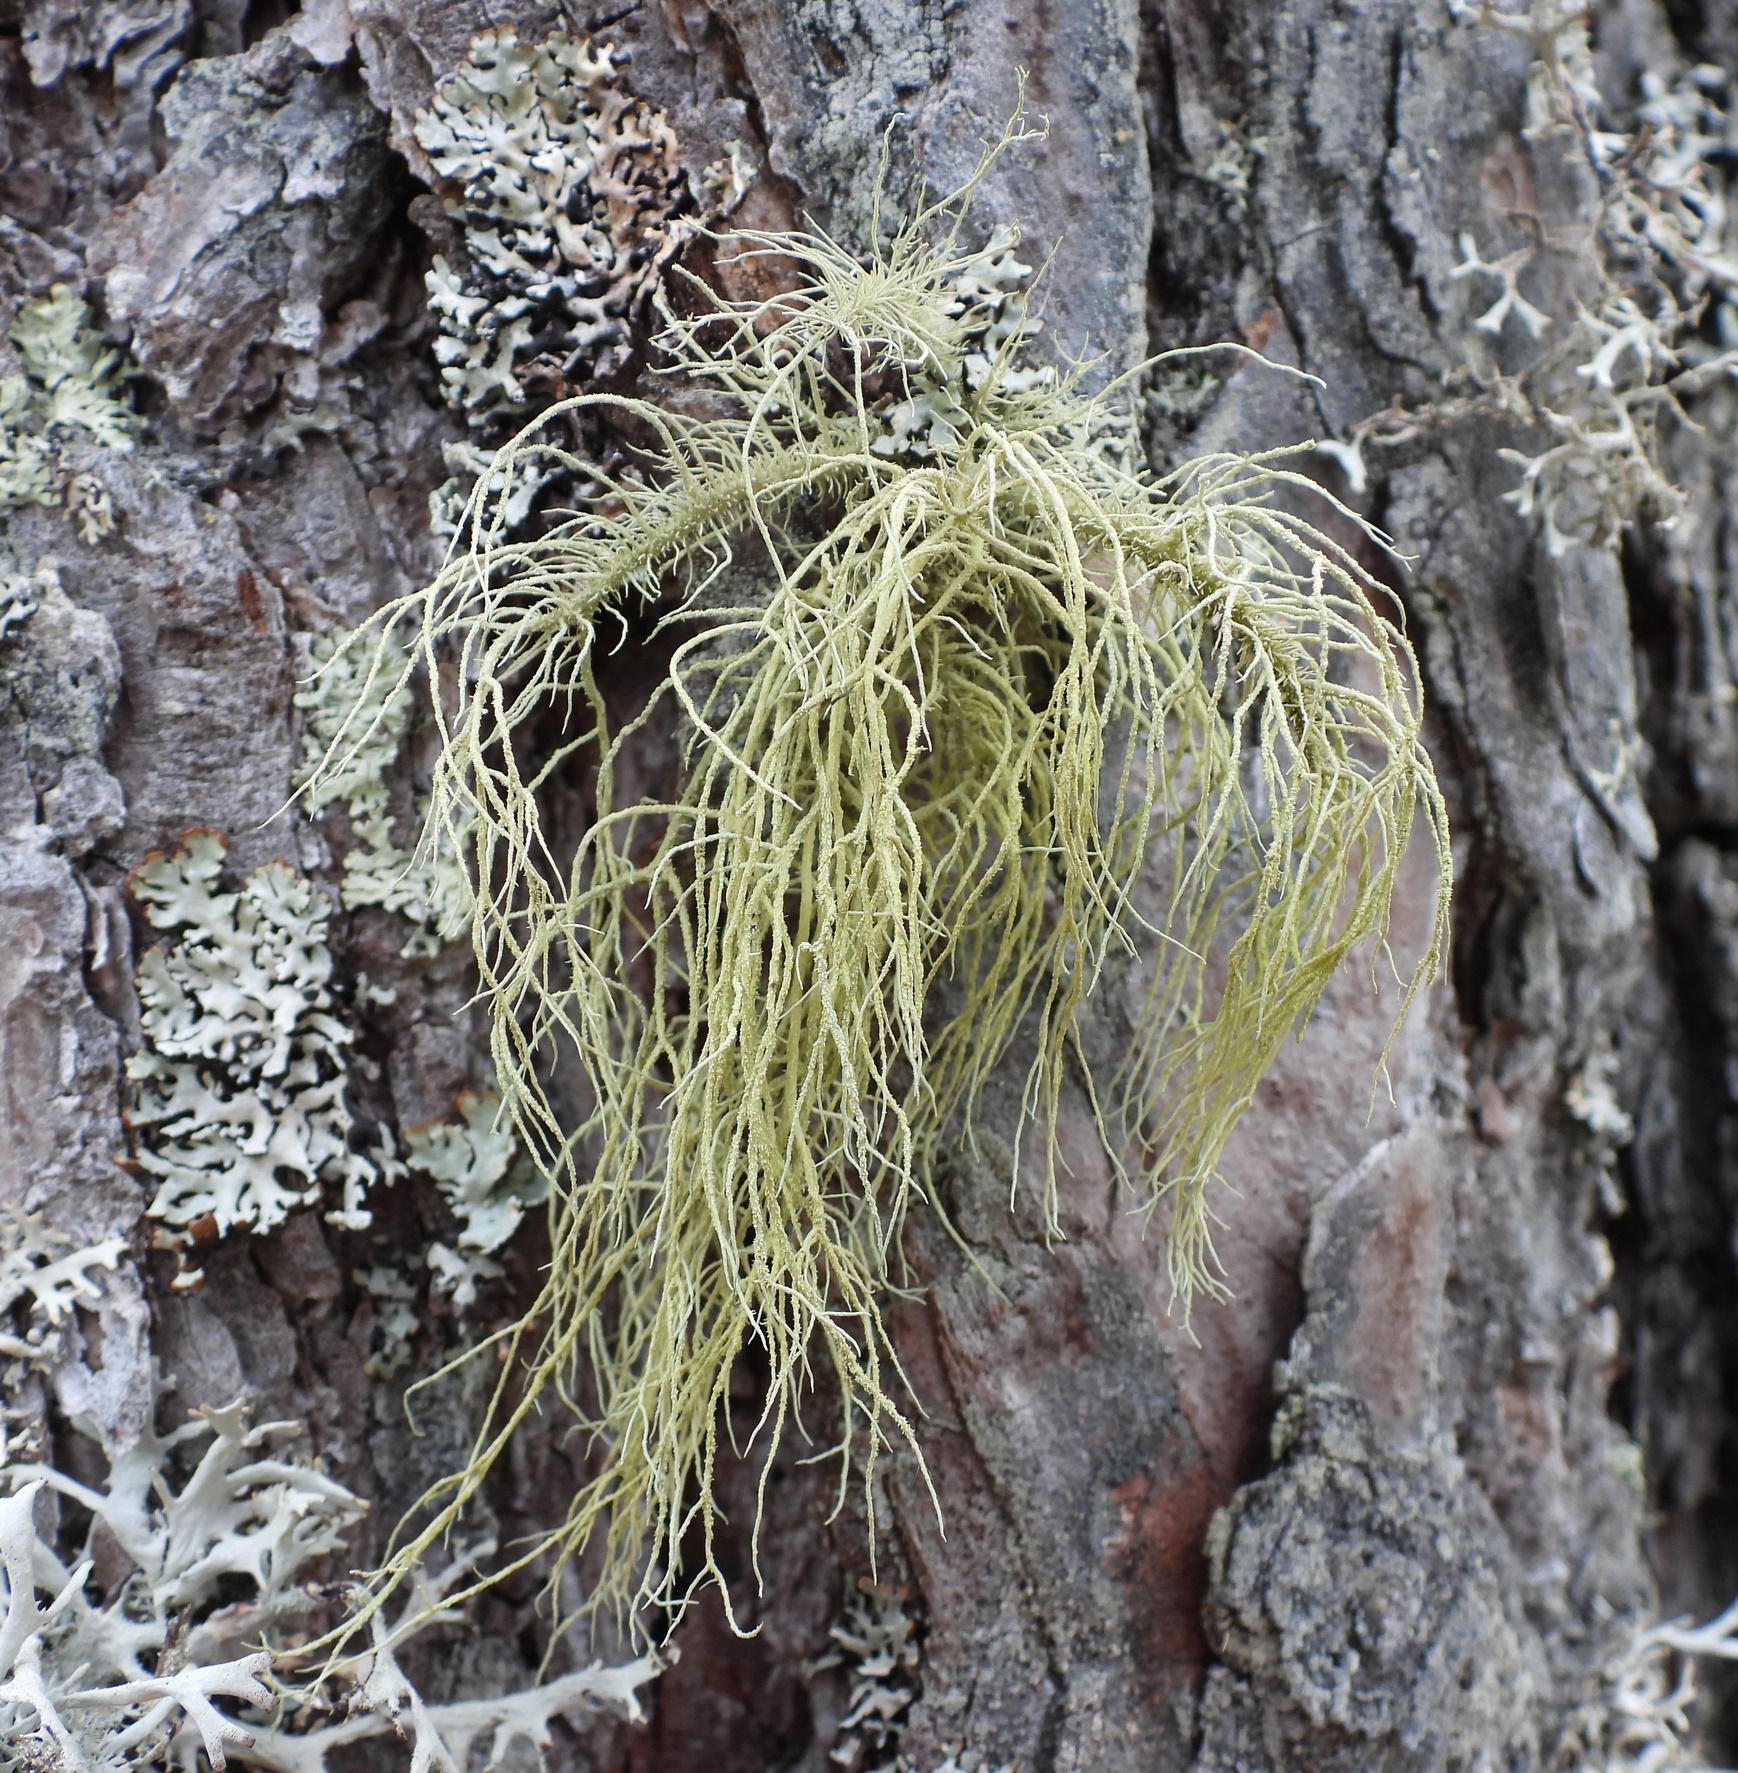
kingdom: Fungi
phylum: Ascomycota
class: Lecanoromycetes
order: Lecanorales
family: Parmeliaceae
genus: Usnea
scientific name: Usnea hirta
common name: Bristly beard lichen
